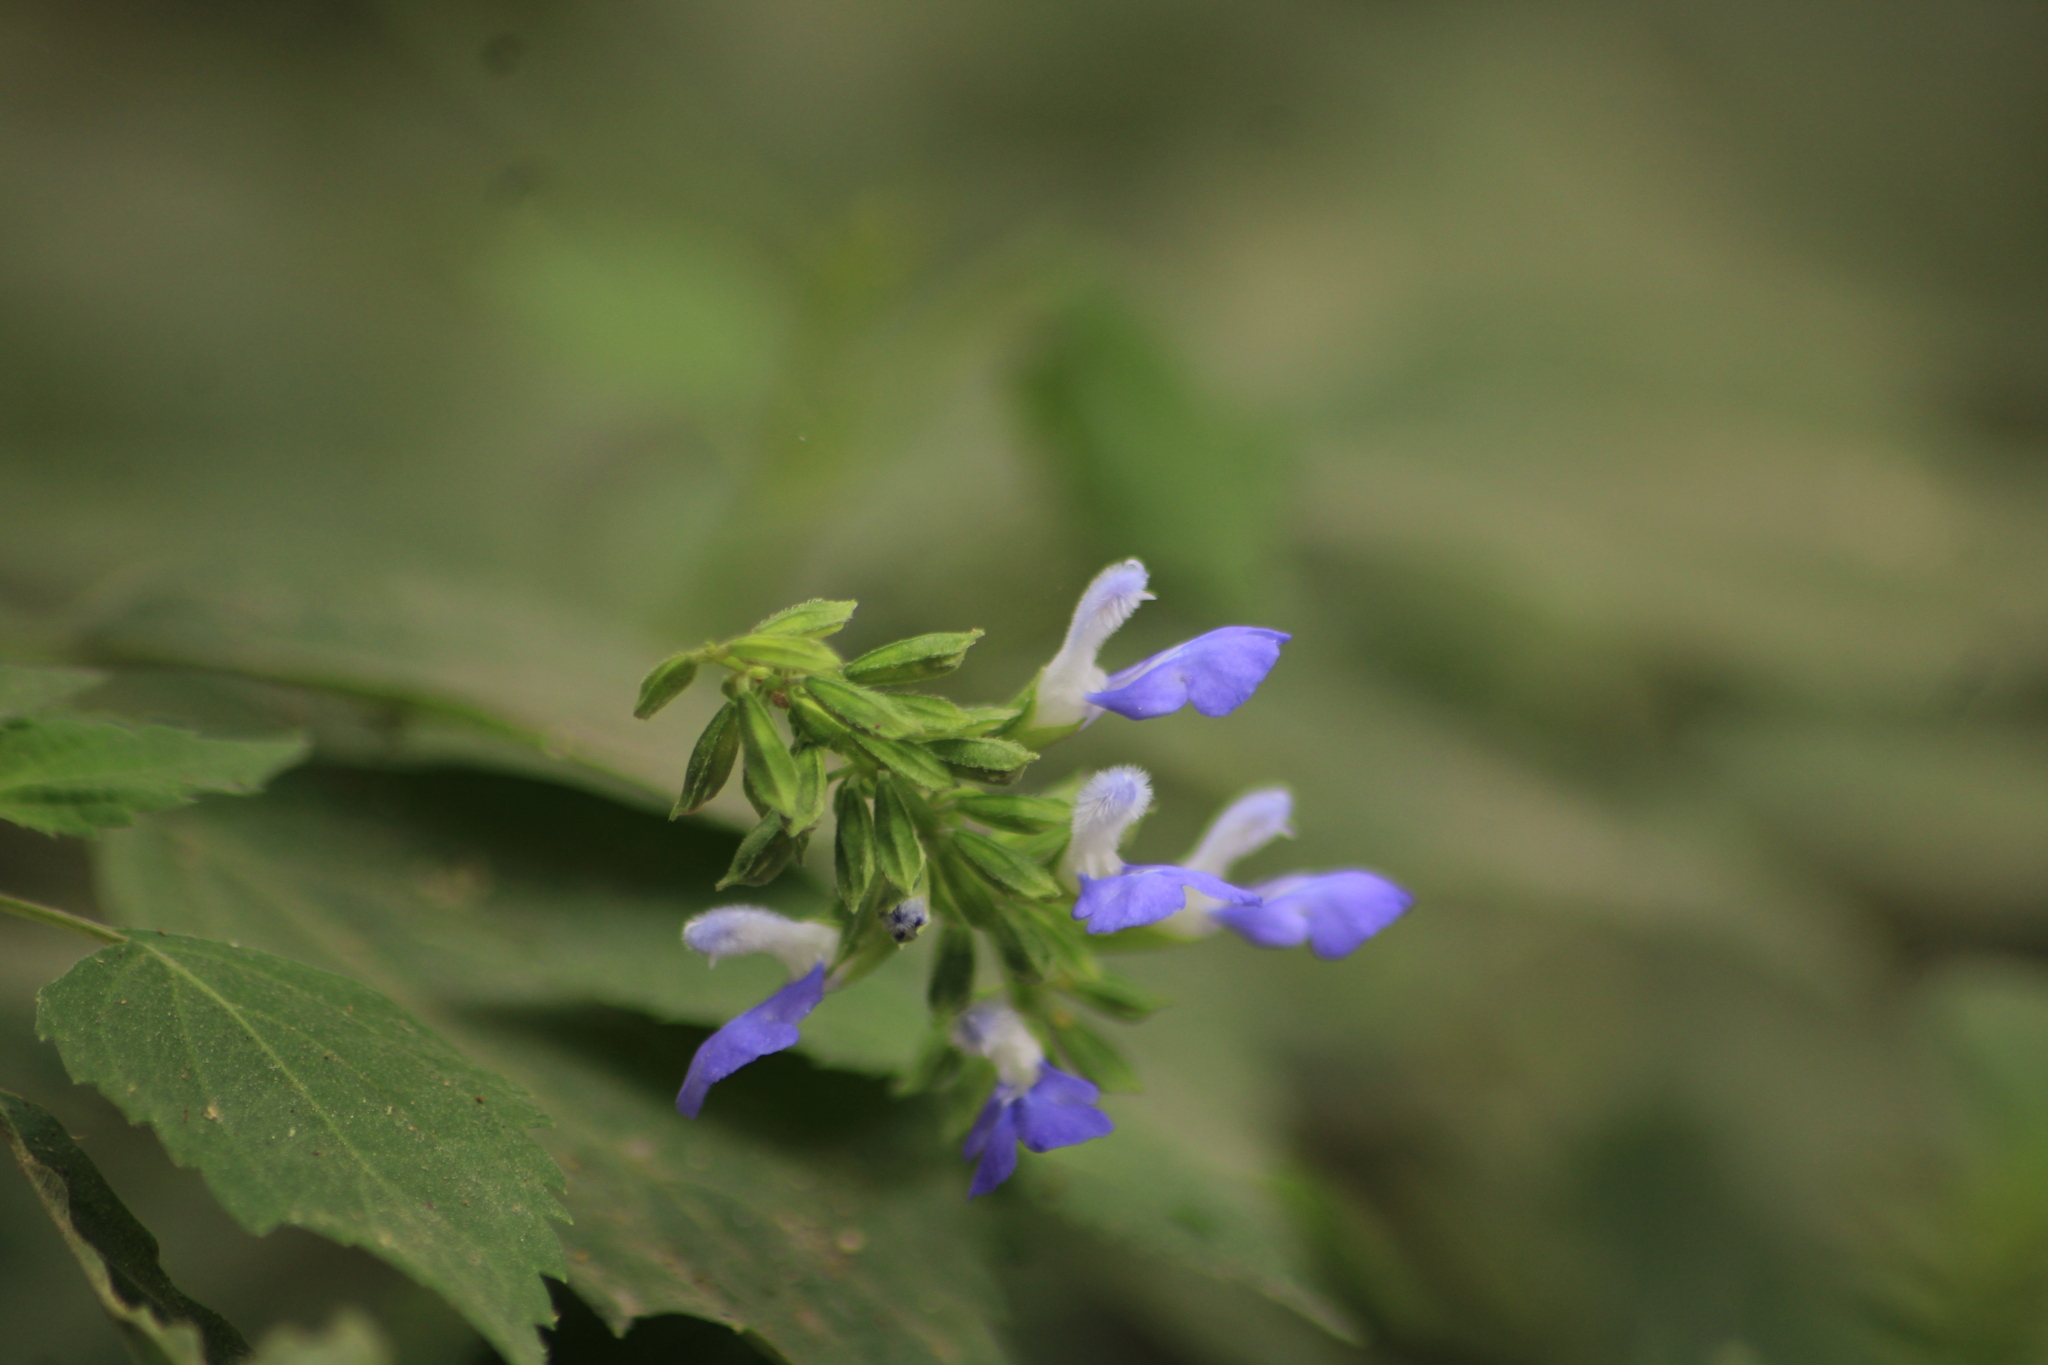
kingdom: Plantae
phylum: Tracheophyta
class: Magnoliopsida
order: Lamiales
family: Lamiaceae
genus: Salvia
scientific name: Salvia languidula
